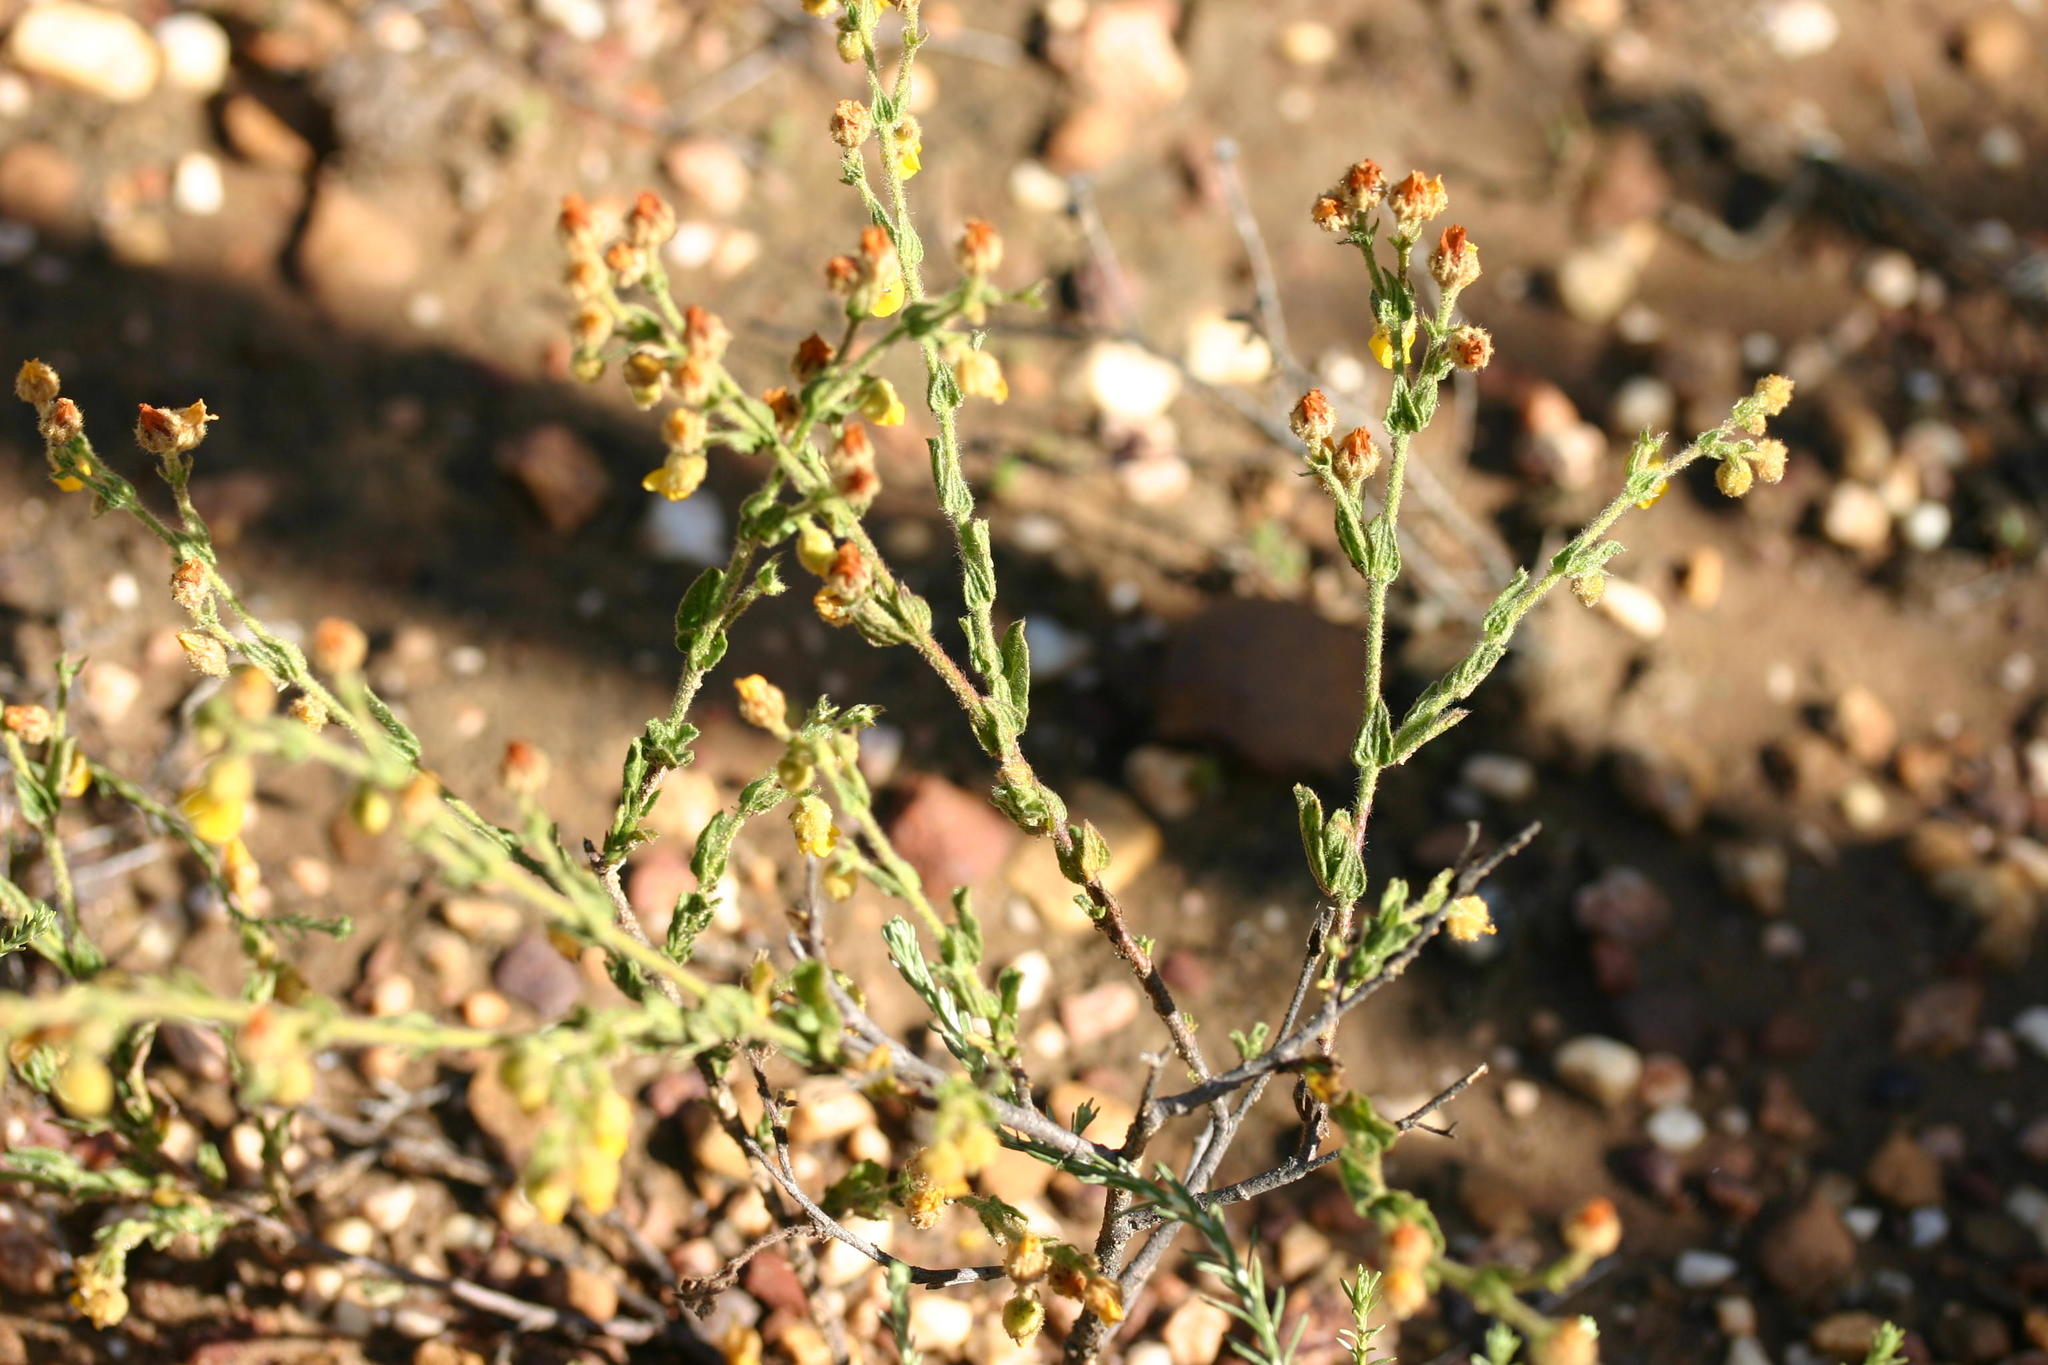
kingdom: Plantae
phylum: Tracheophyta
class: Magnoliopsida
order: Malvales
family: Malvaceae
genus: Hermannia
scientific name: Hermannia stipulacea
